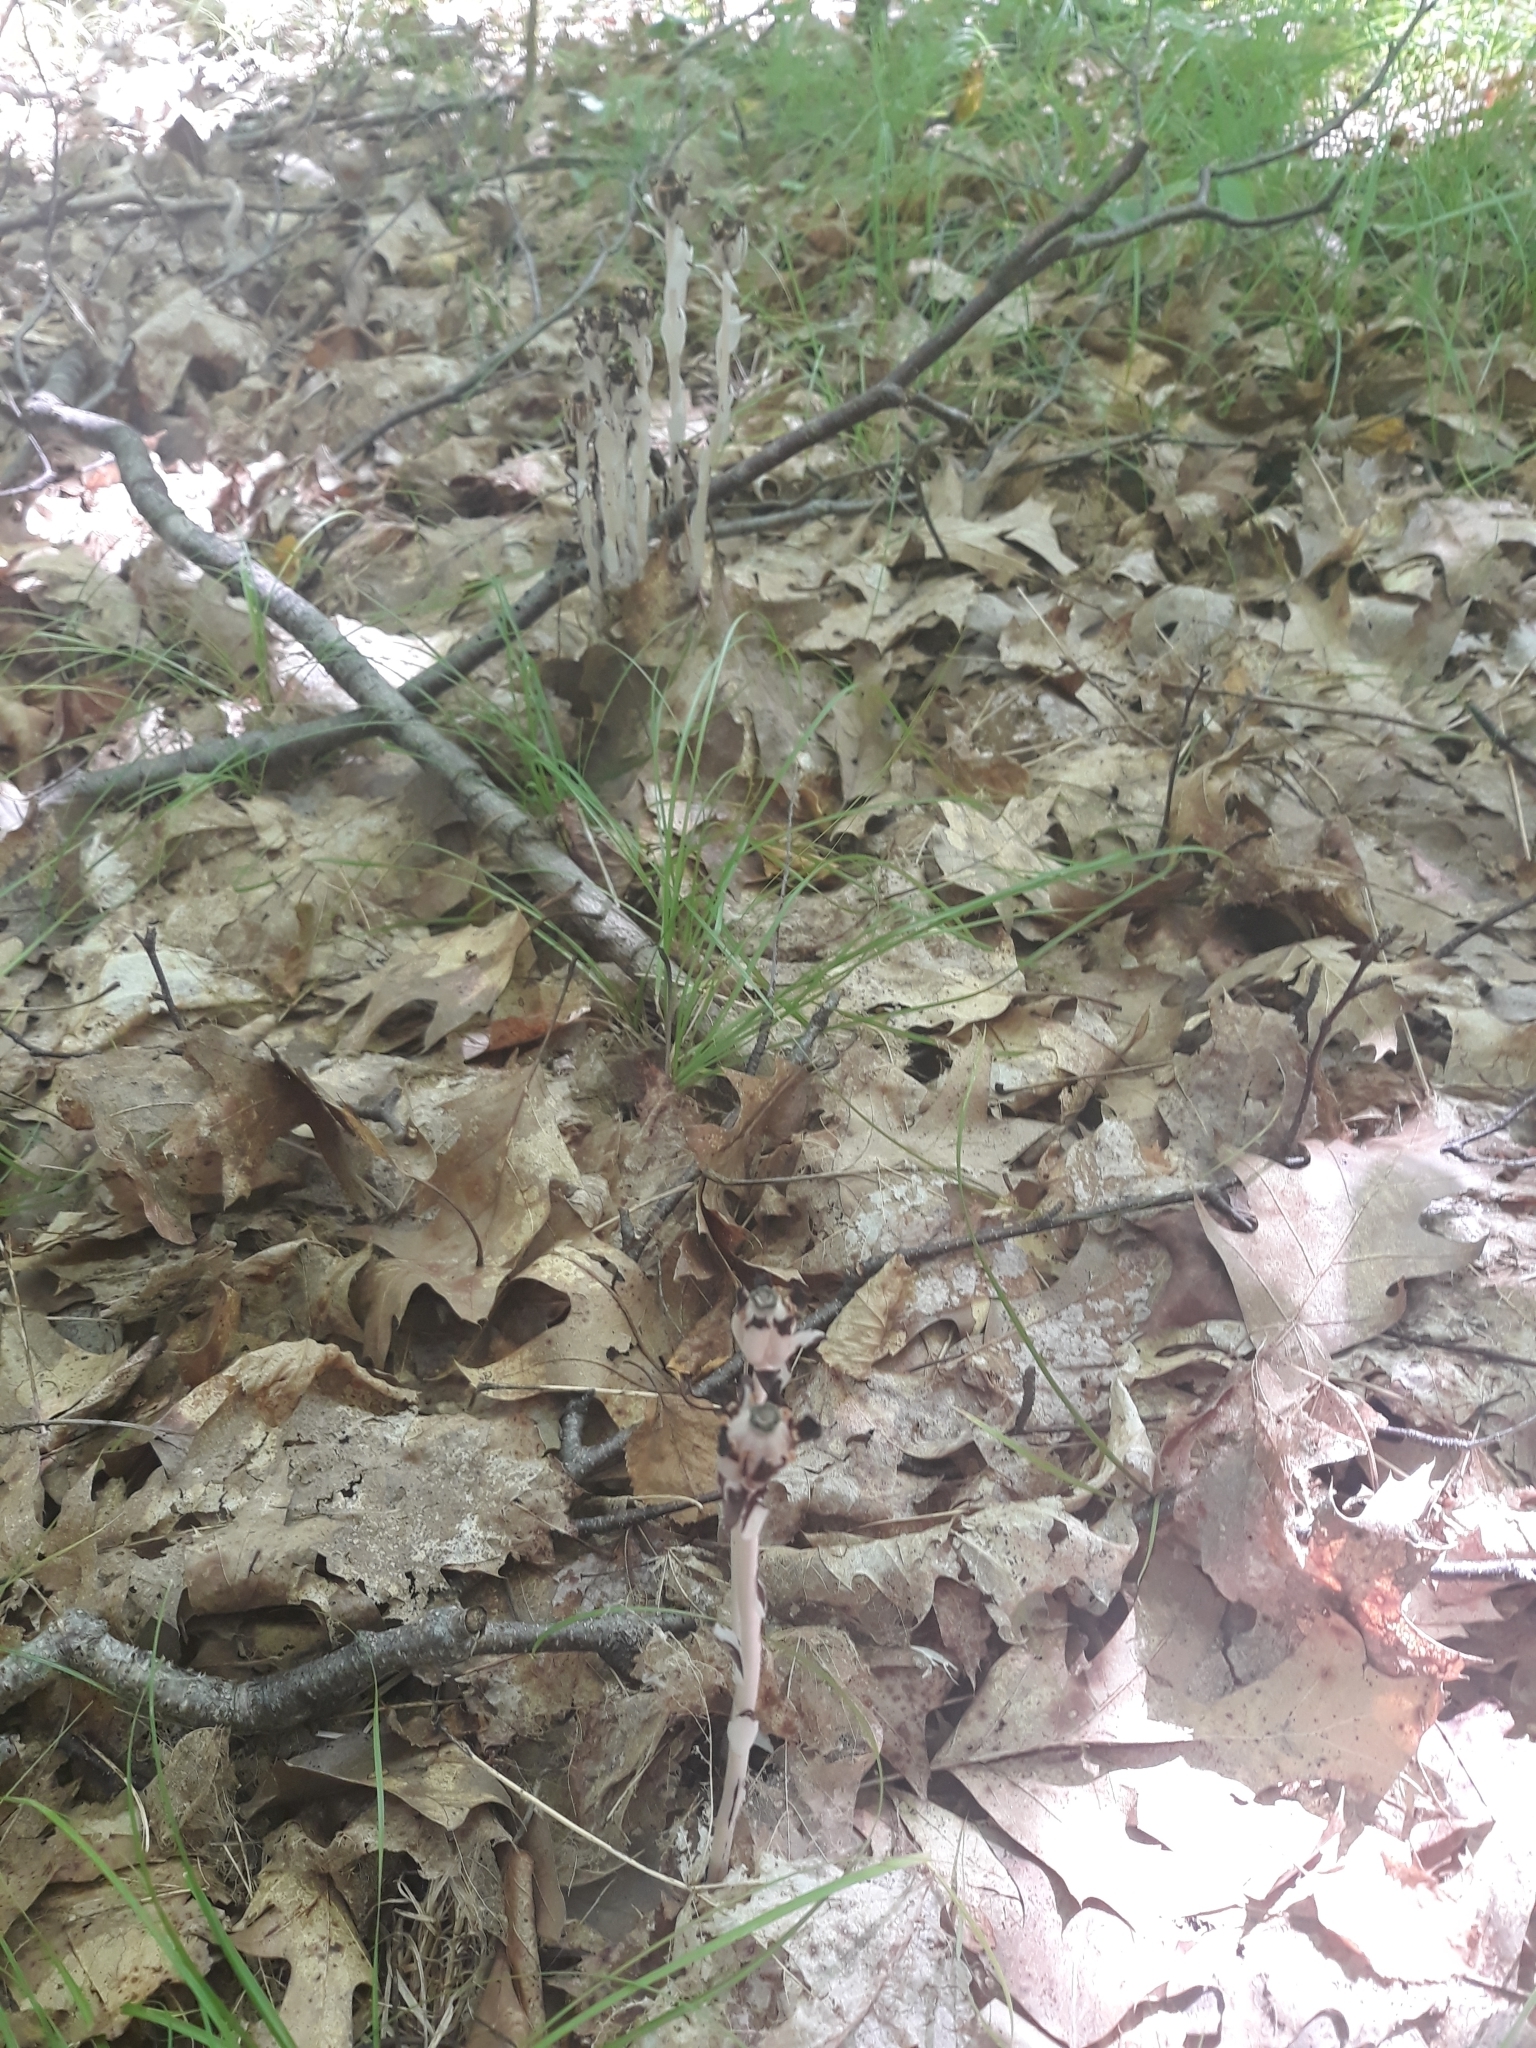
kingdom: Plantae
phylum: Tracheophyta
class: Magnoliopsida
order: Ericales
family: Ericaceae
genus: Monotropa
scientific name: Monotropa uniflora
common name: Convulsion root
